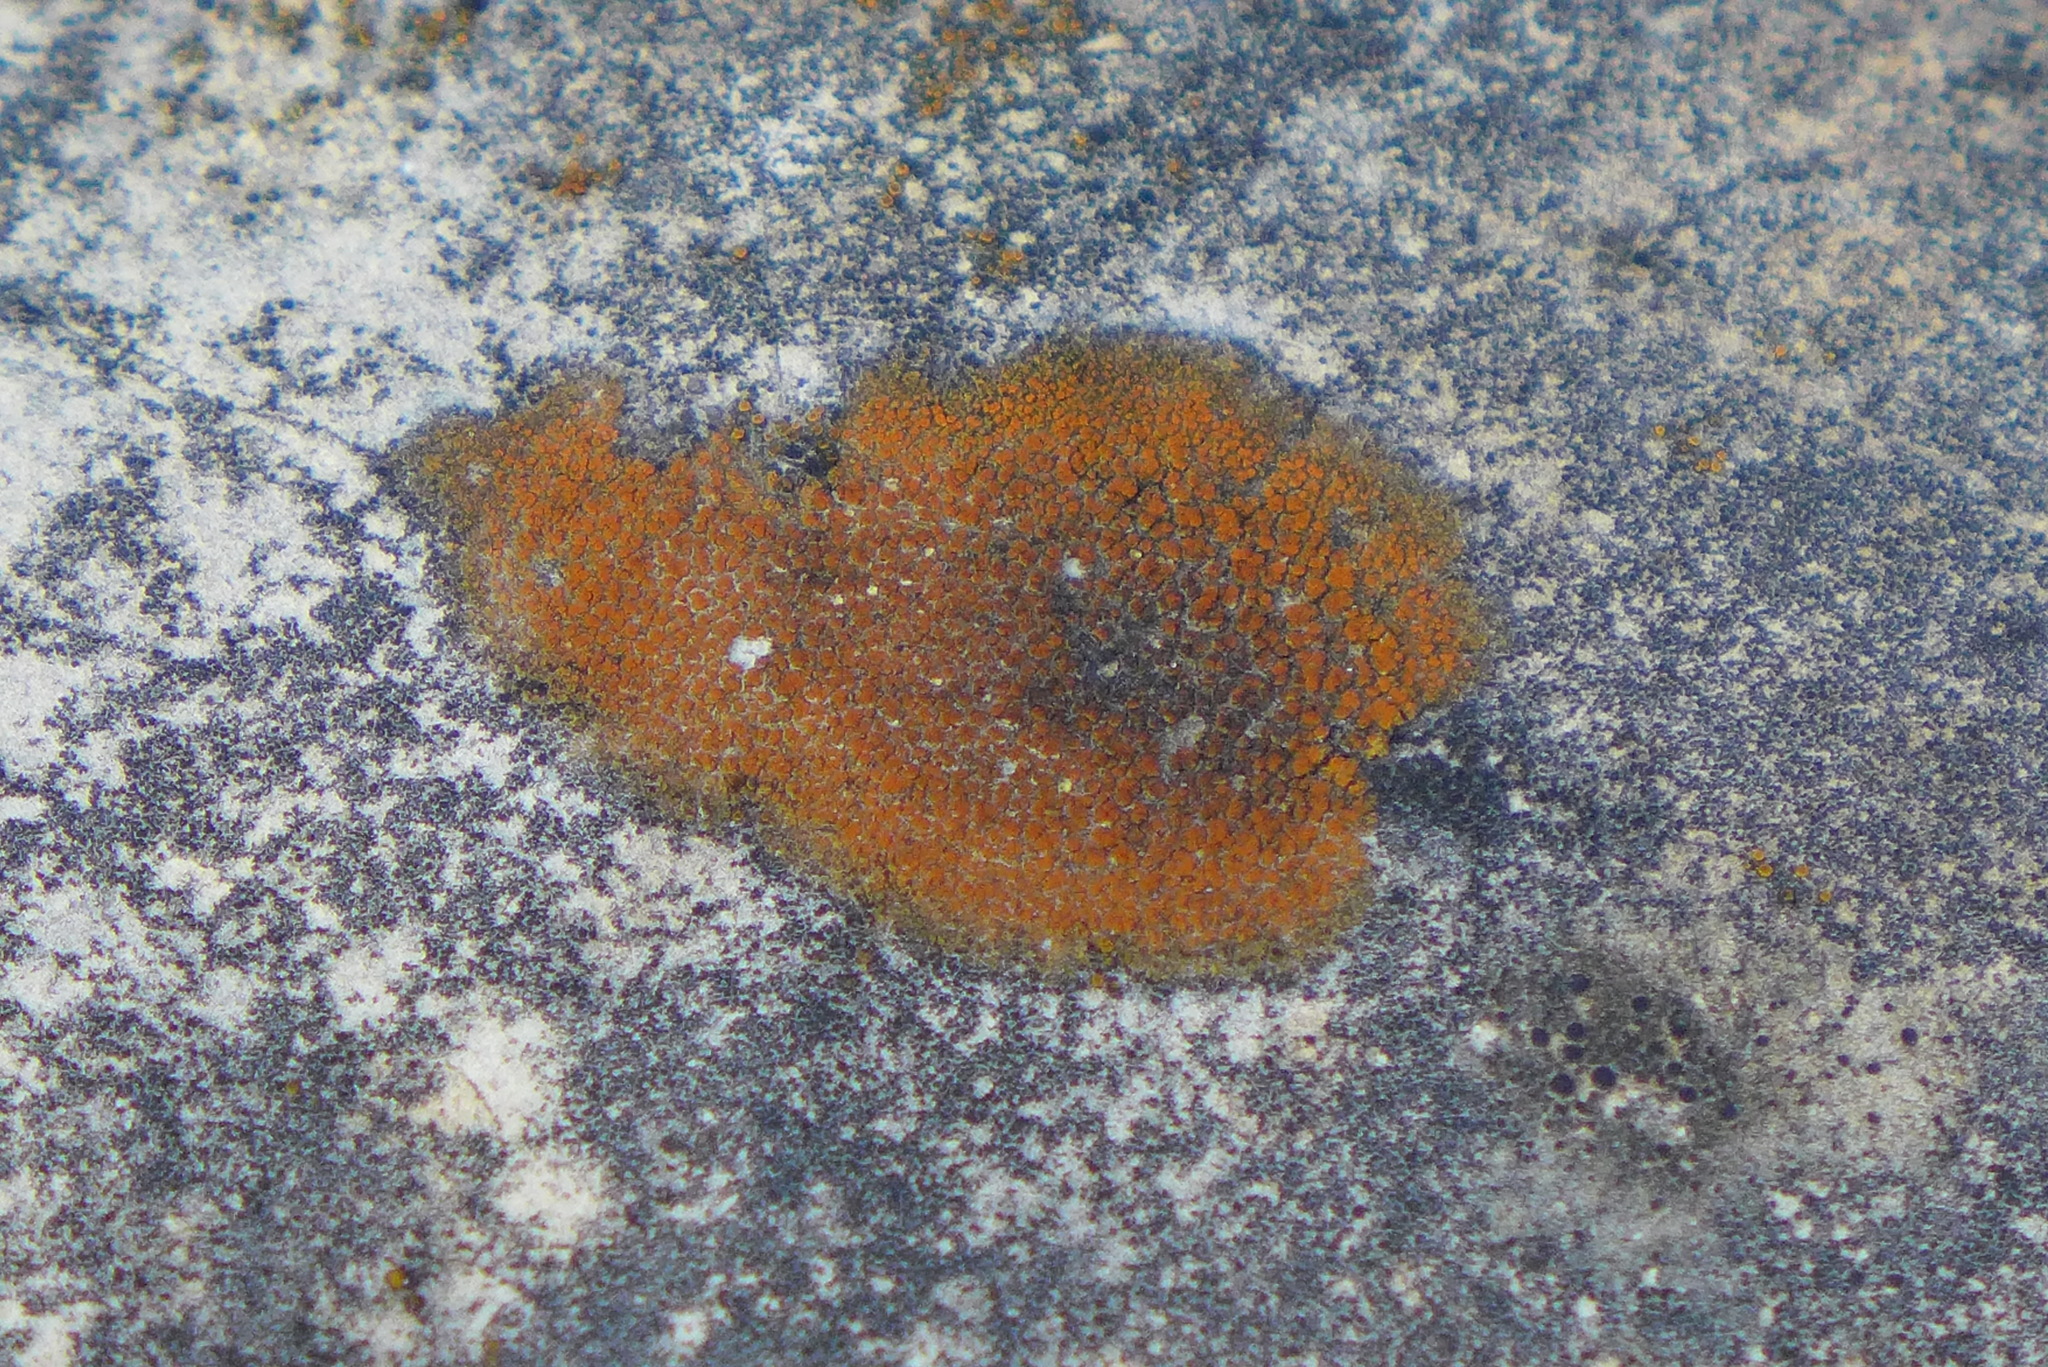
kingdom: Fungi
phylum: Ascomycota
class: Lecanoromycetes
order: Teloschistales
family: Teloschistaceae
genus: Xanthocarpia
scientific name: Xanthocarpia feracissima
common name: Sidewalk firedot
